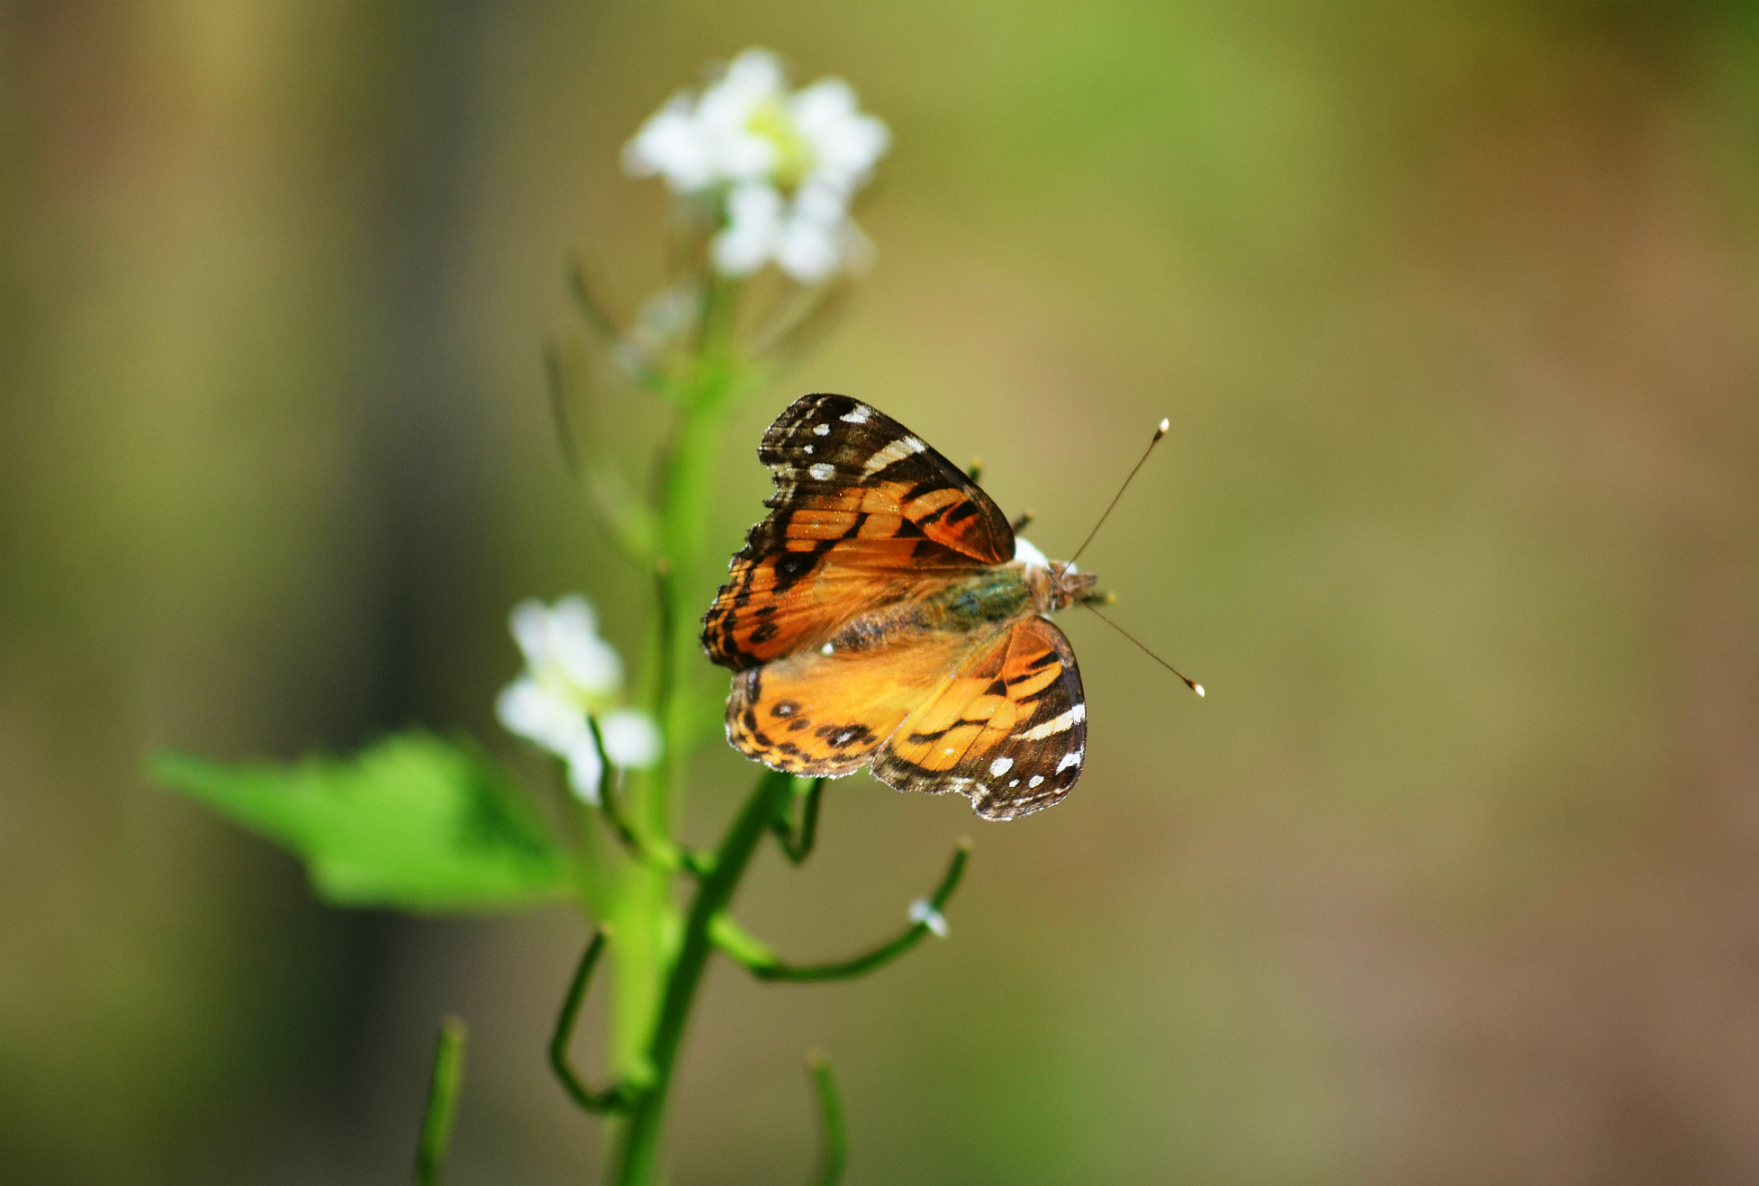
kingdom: Animalia
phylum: Arthropoda
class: Insecta
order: Lepidoptera
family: Nymphalidae
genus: Vanessa
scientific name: Vanessa virginiensis
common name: American lady
